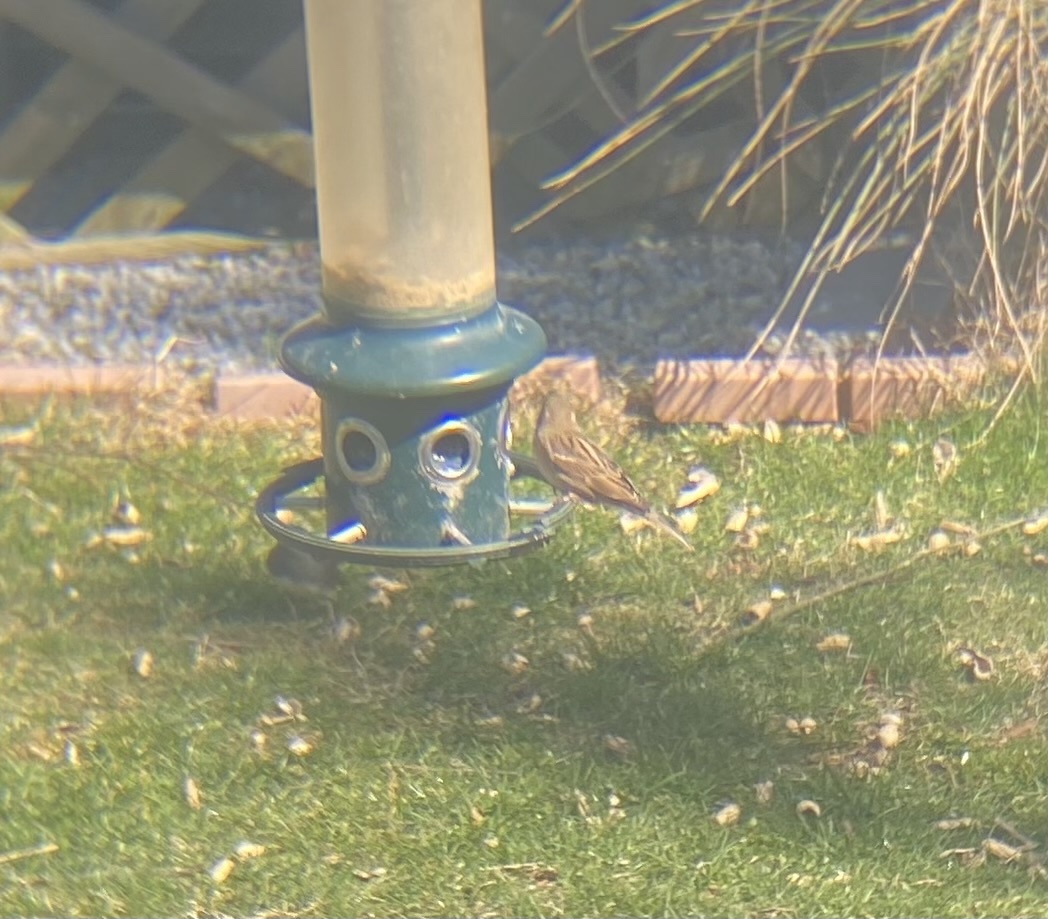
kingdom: Animalia
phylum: Chordata
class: Aves
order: Passeriformes
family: Passeridae
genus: Passer
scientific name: Passer domesticus
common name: House sparrow
